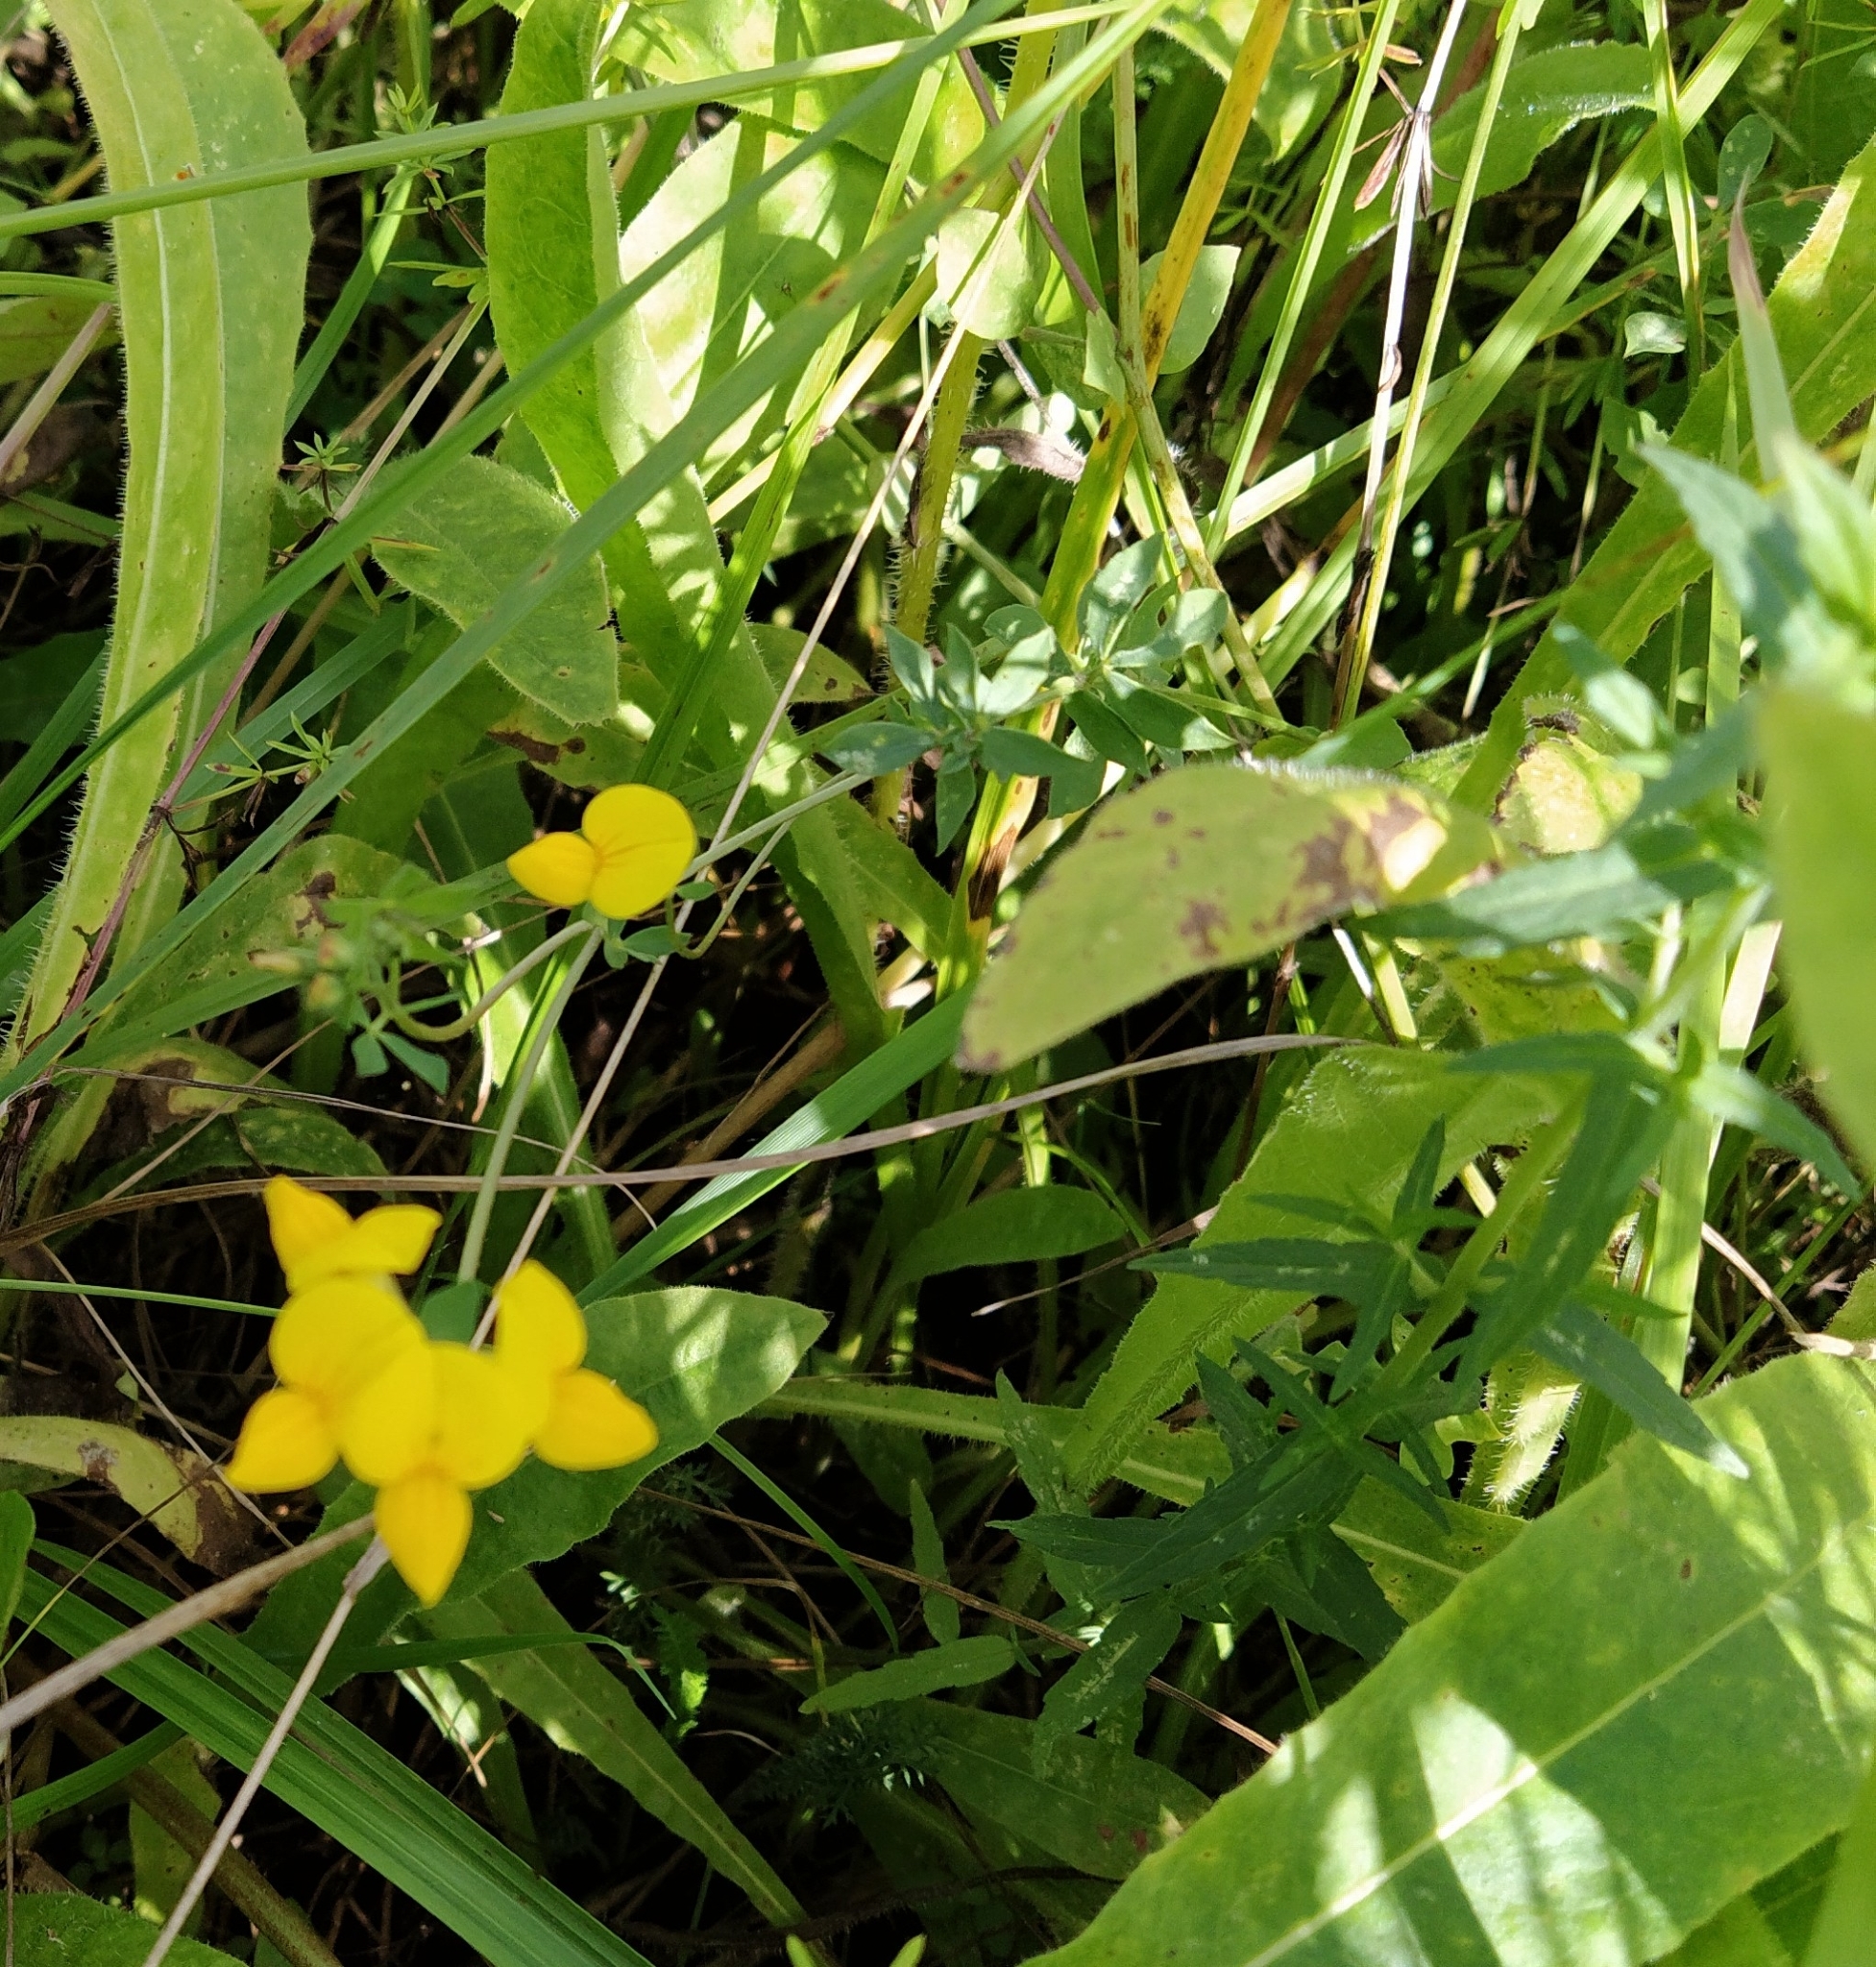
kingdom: Plantae
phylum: Tracheophyta
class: Magnoliopsida
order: Fabales
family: Fabaceae
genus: Lotus
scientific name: Lotus corniculatus
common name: Common bird's-foot-trefoil
